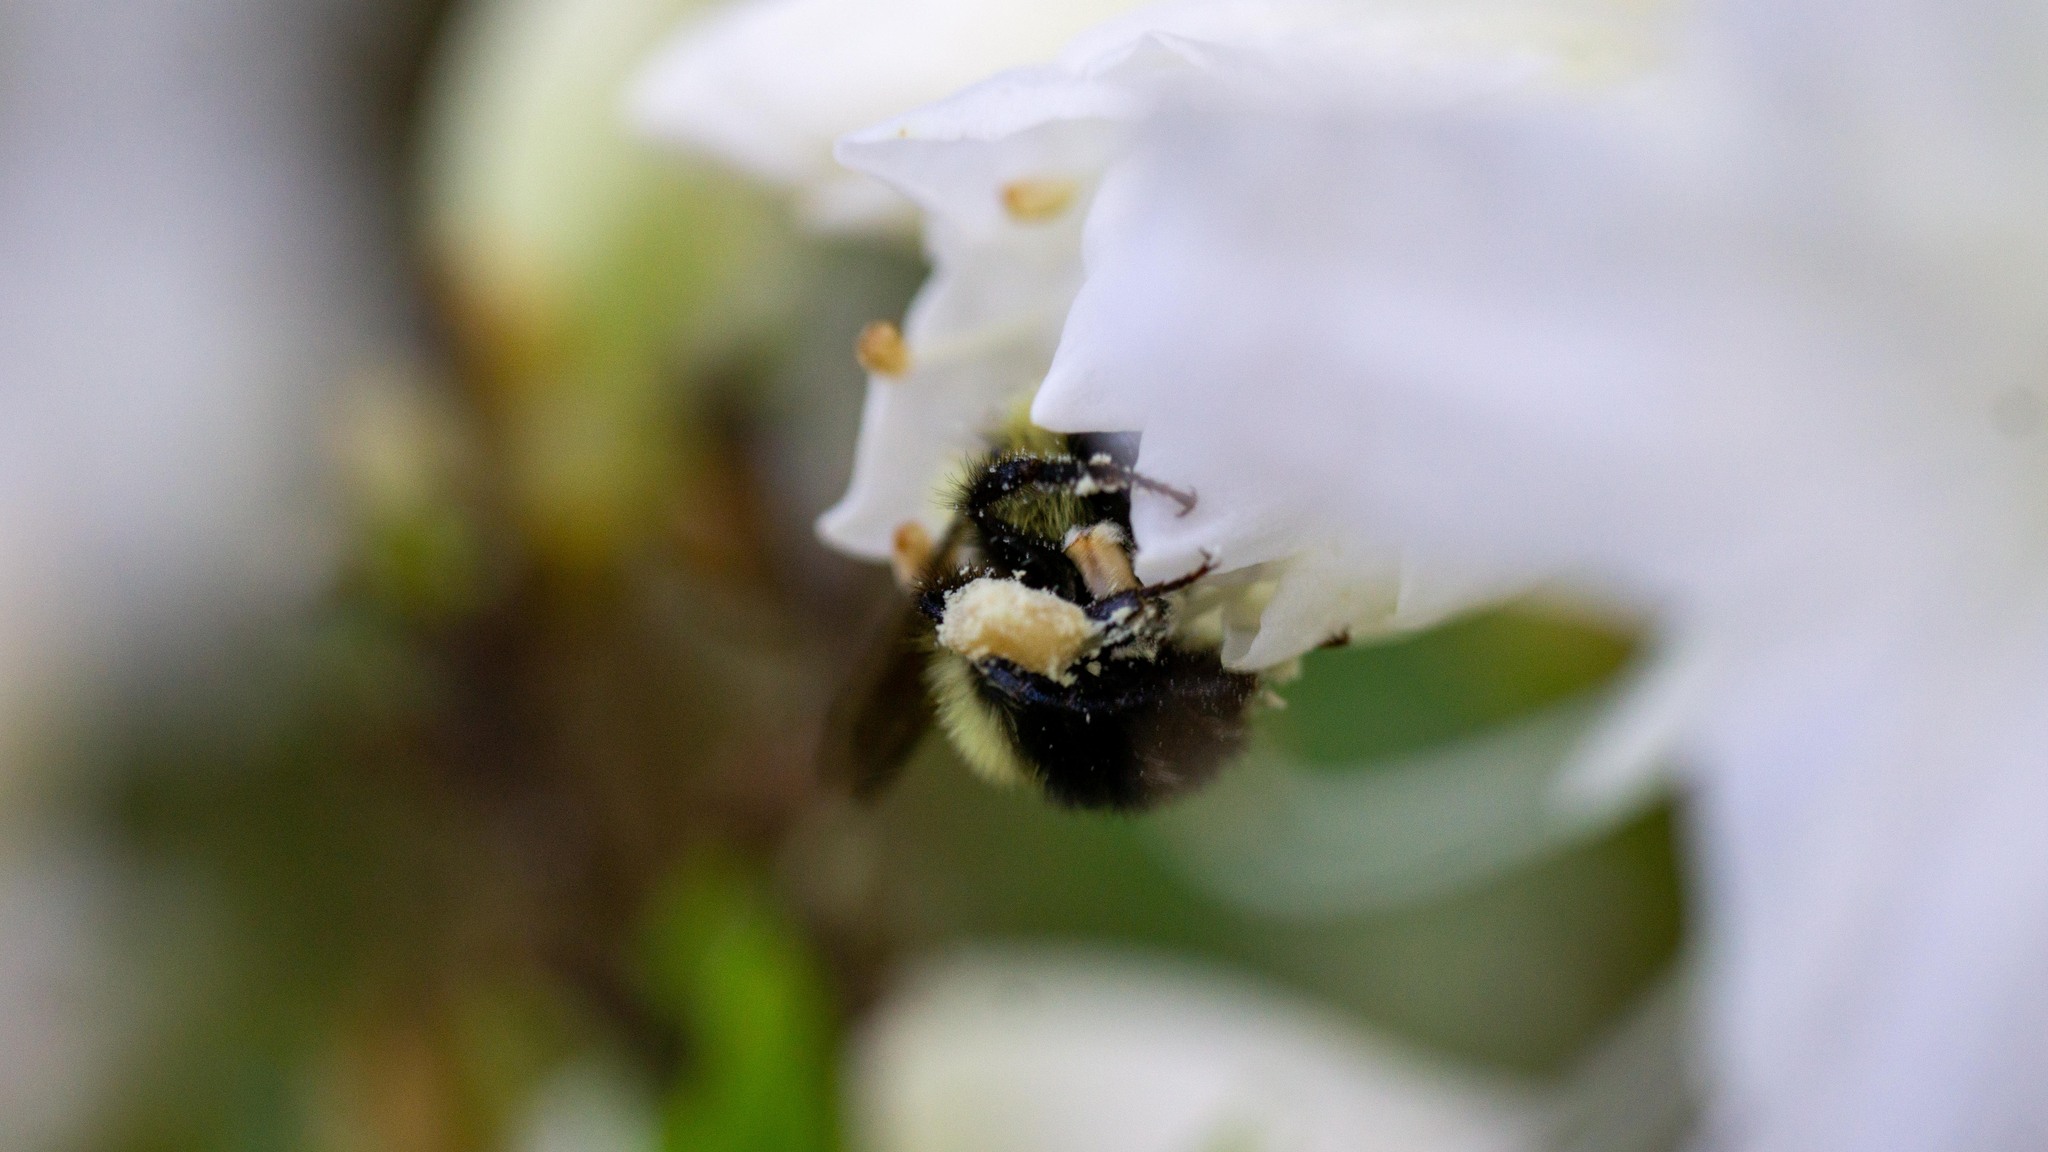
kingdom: Animalia
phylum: Arthropoda
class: Insecta
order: Hymenoptera
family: Apidae
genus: Bombus
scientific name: Bombus bimaculatus
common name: Two-spotted bumble bee
